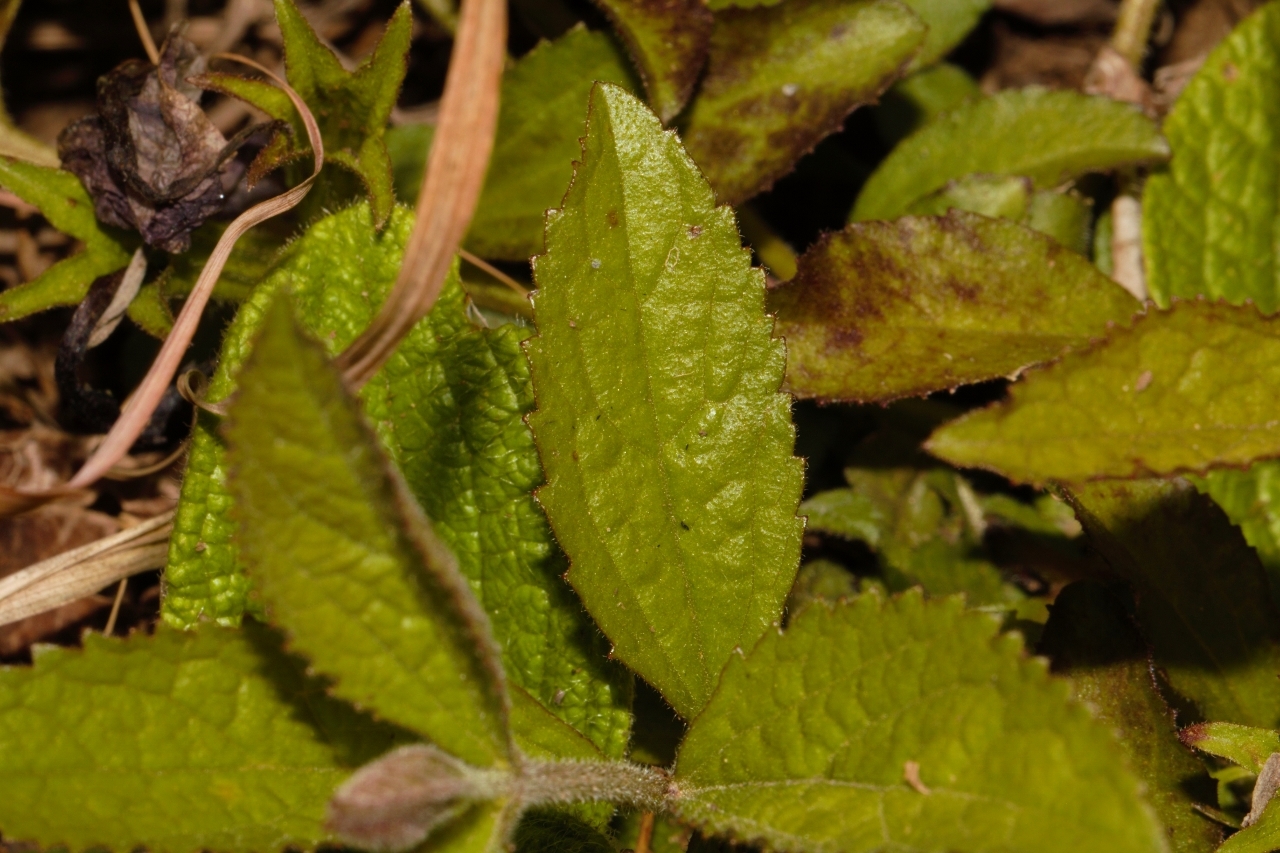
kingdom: Plantae
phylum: Tracheophyta
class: Magnoliopsida
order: Lamiales
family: Orobanchaceae
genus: Cycnium
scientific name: Cycnium adonense
